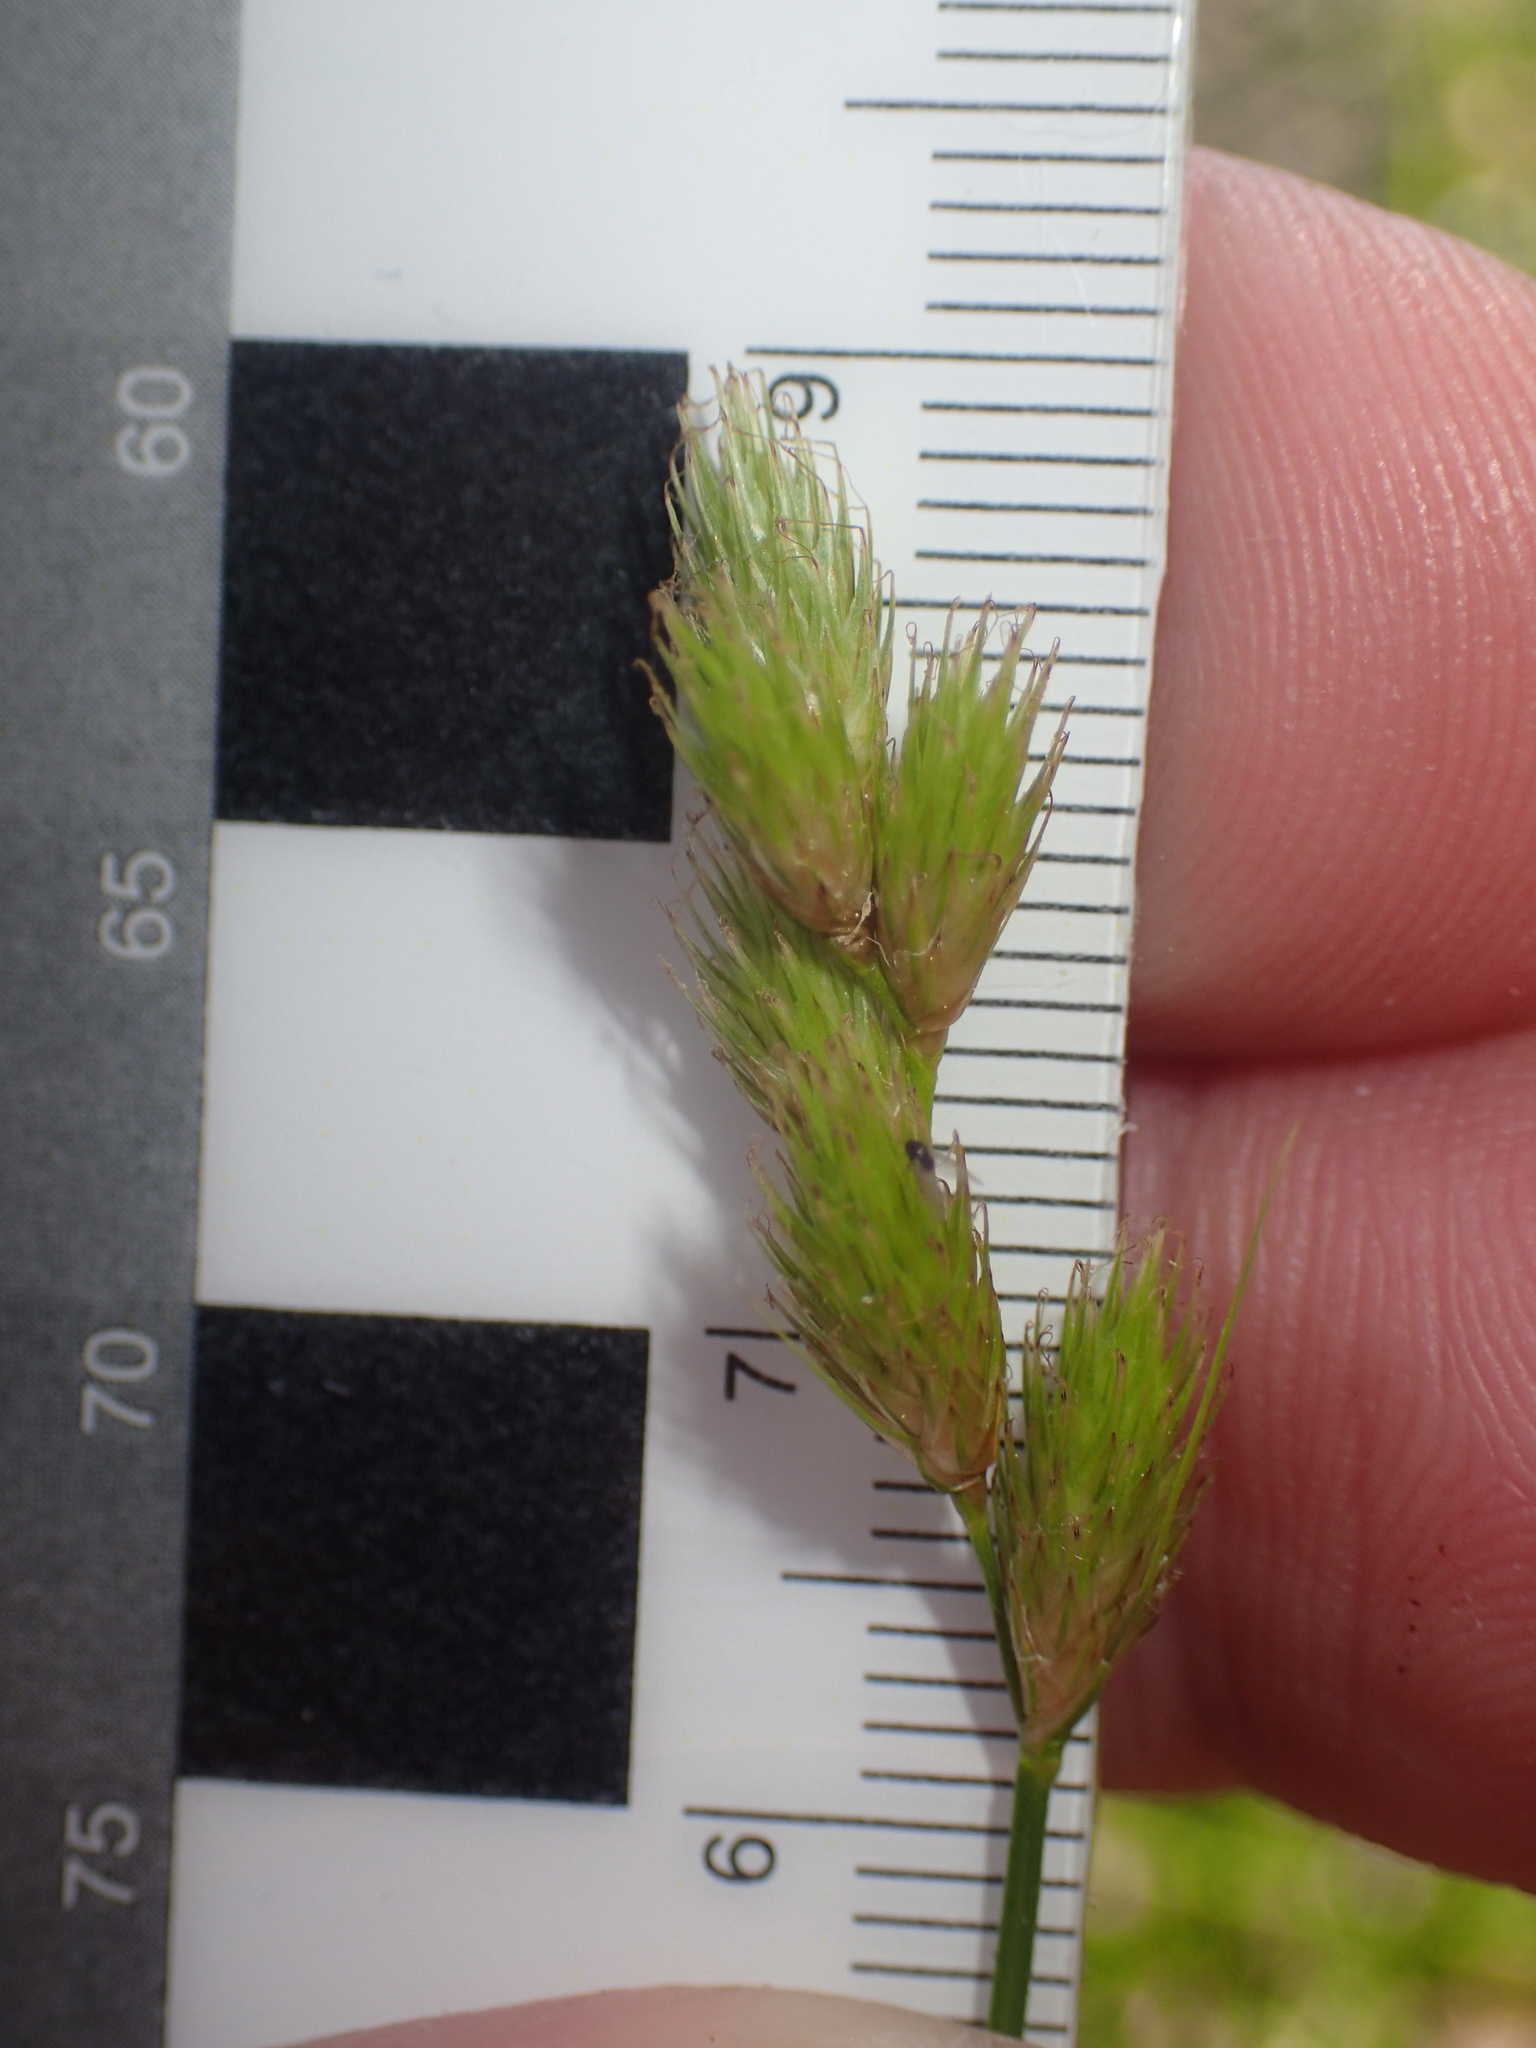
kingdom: Plantae
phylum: Tracheophyta
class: Liliopsida
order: Poales
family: Cyperaceae
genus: Carex
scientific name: Carex scoparia
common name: Broom sedge
